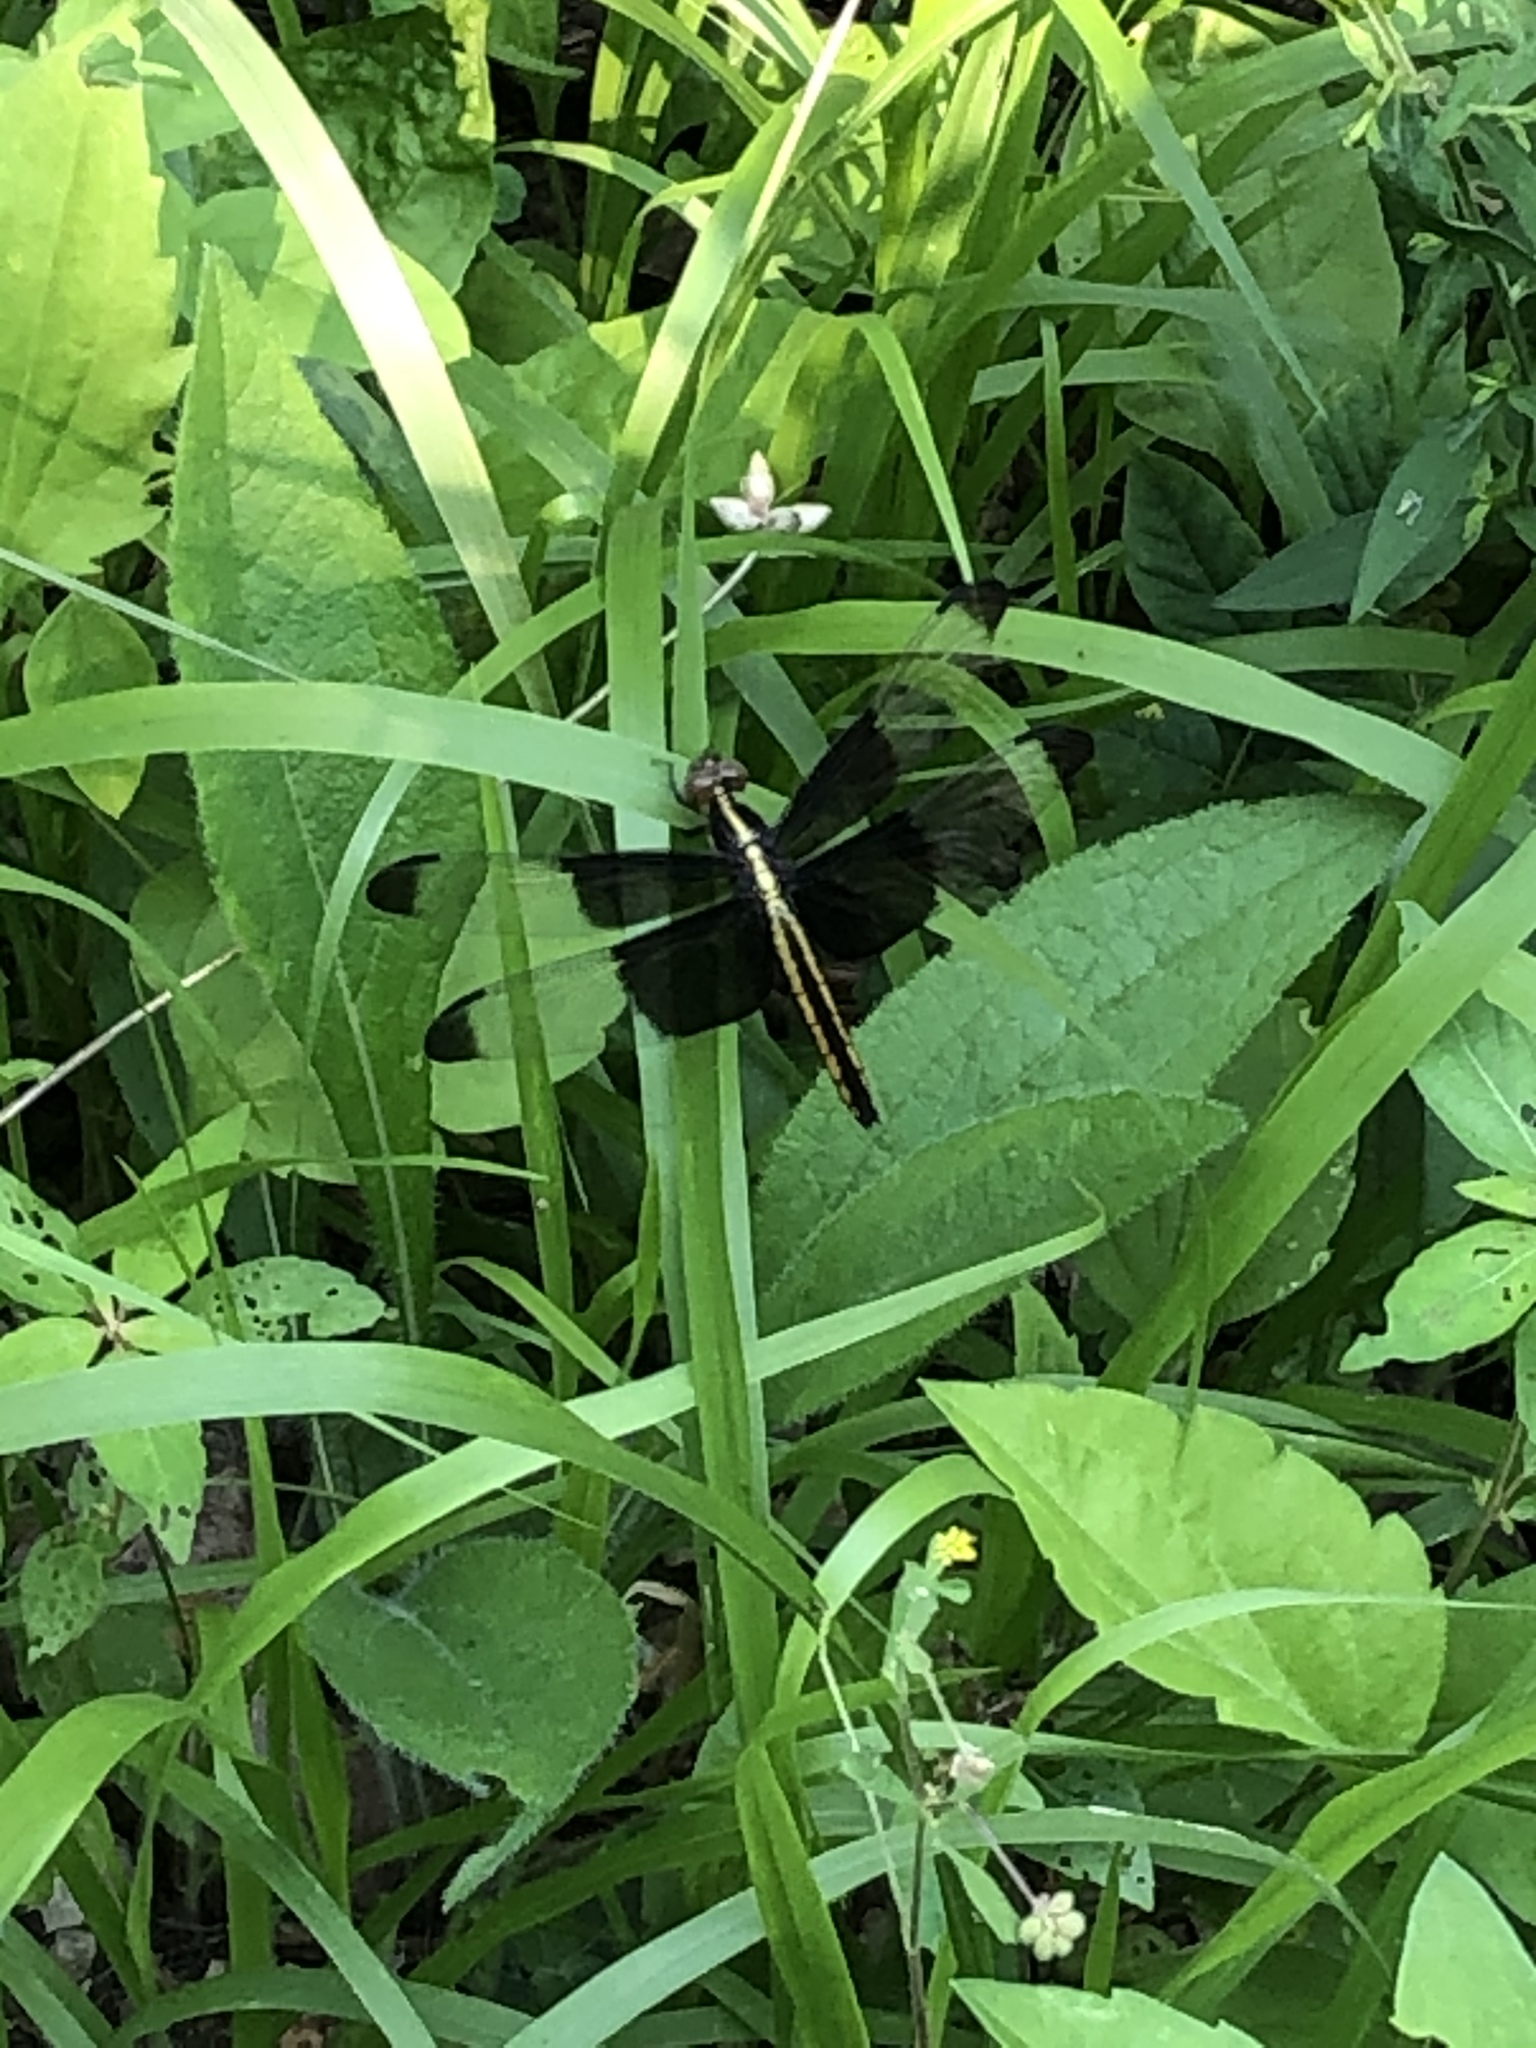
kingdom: Animalia
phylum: Arthropoda
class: Insecta
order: Odonata
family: Libellulidae
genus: Libellula
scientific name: Libellula luctuosa
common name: Widow skimmer
